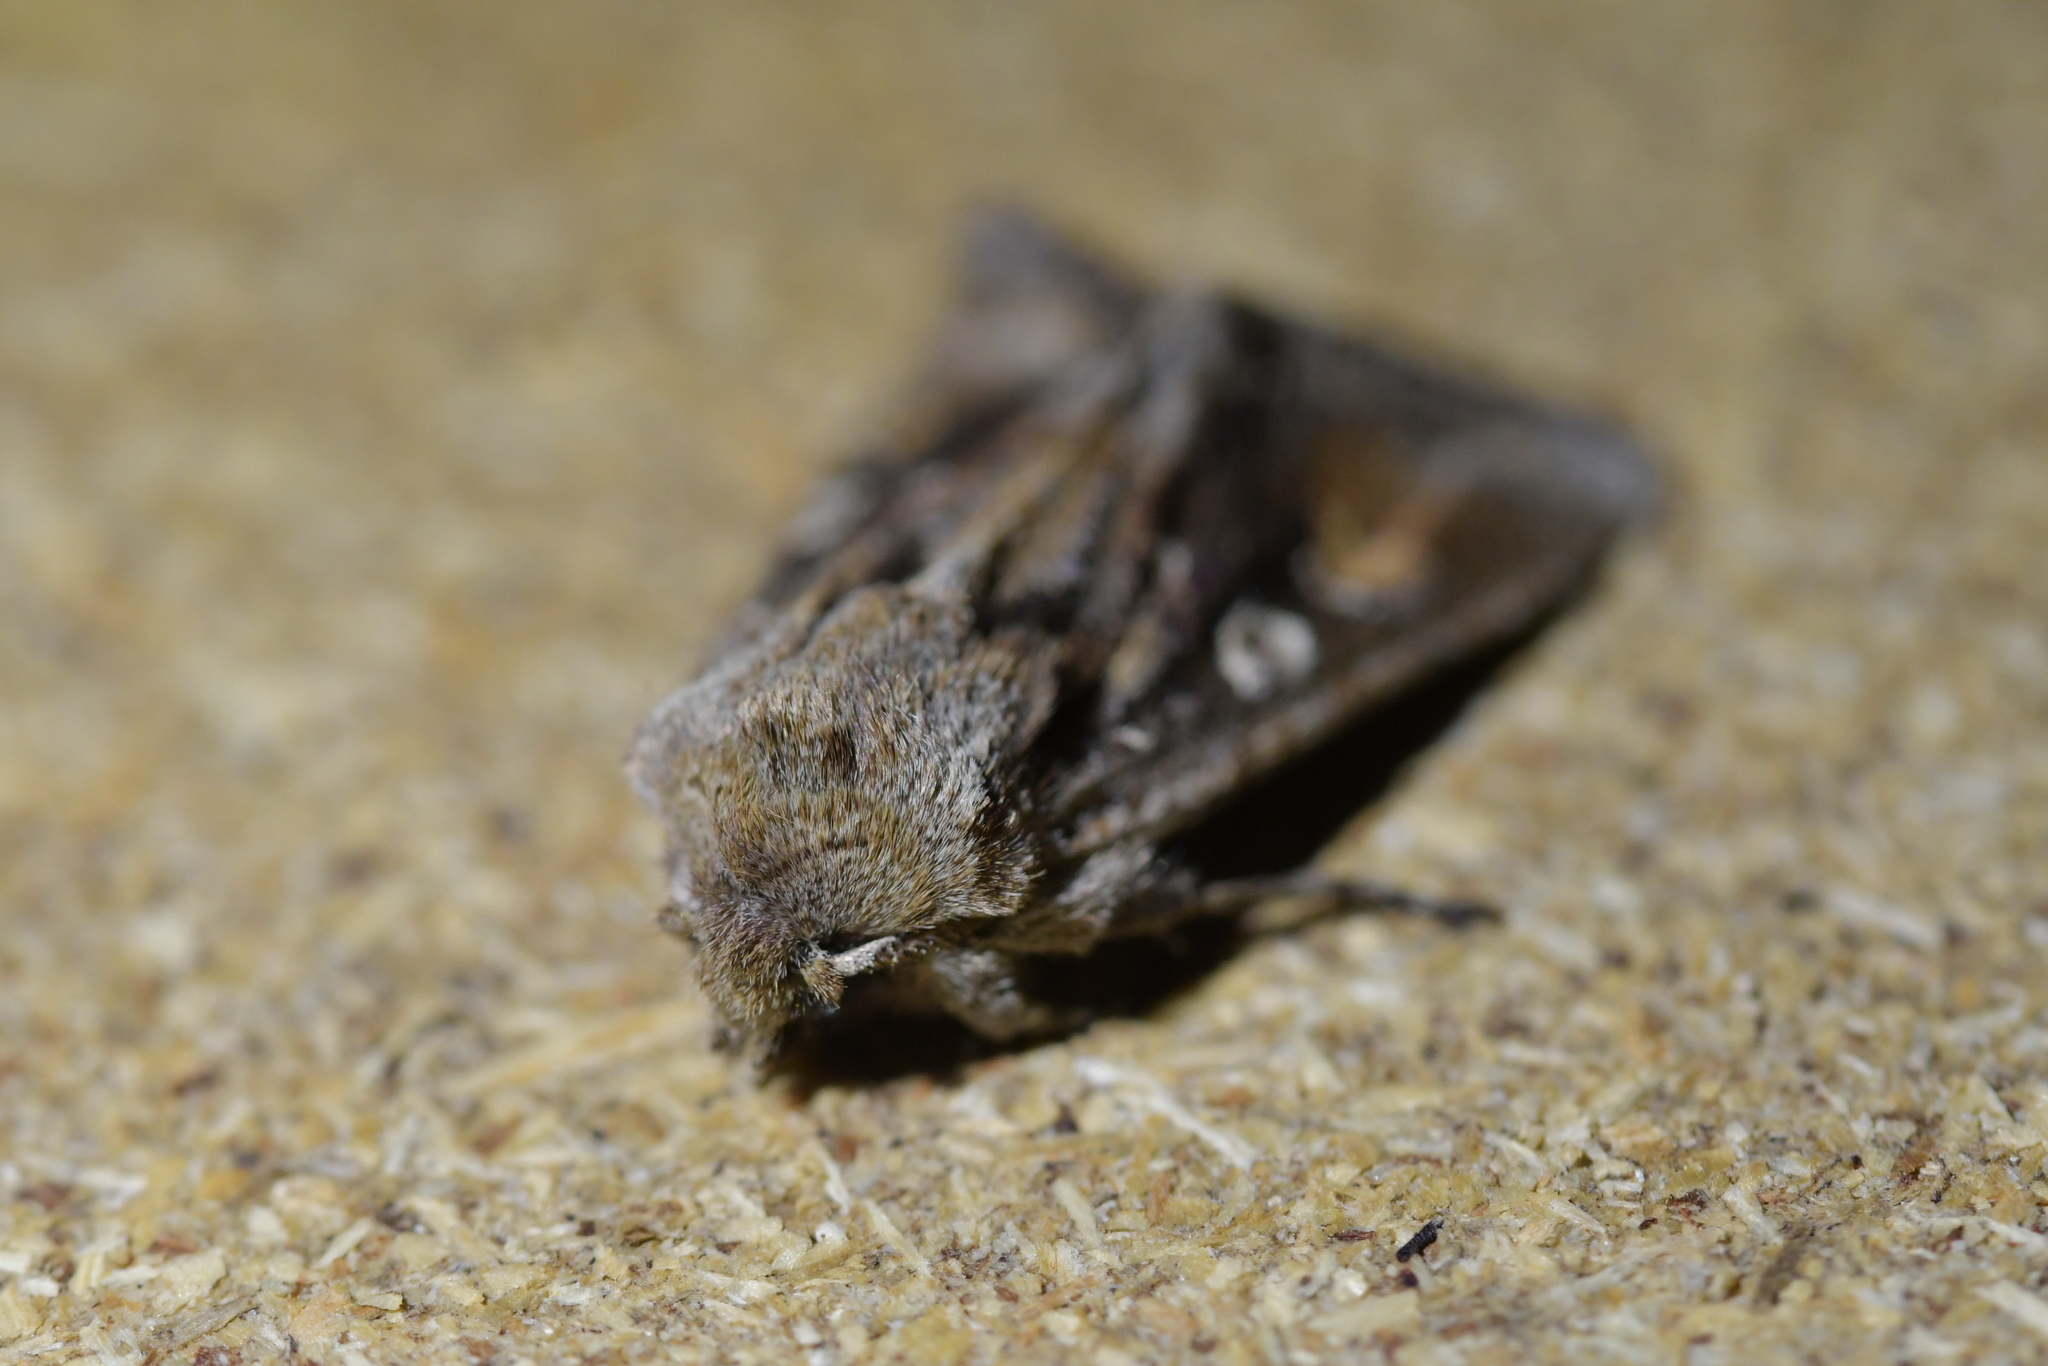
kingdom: Animalia
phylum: Arthropoda
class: Insecta
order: Lepidoptera
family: Noctuidae
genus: Ichneutica
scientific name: Ichneutica
